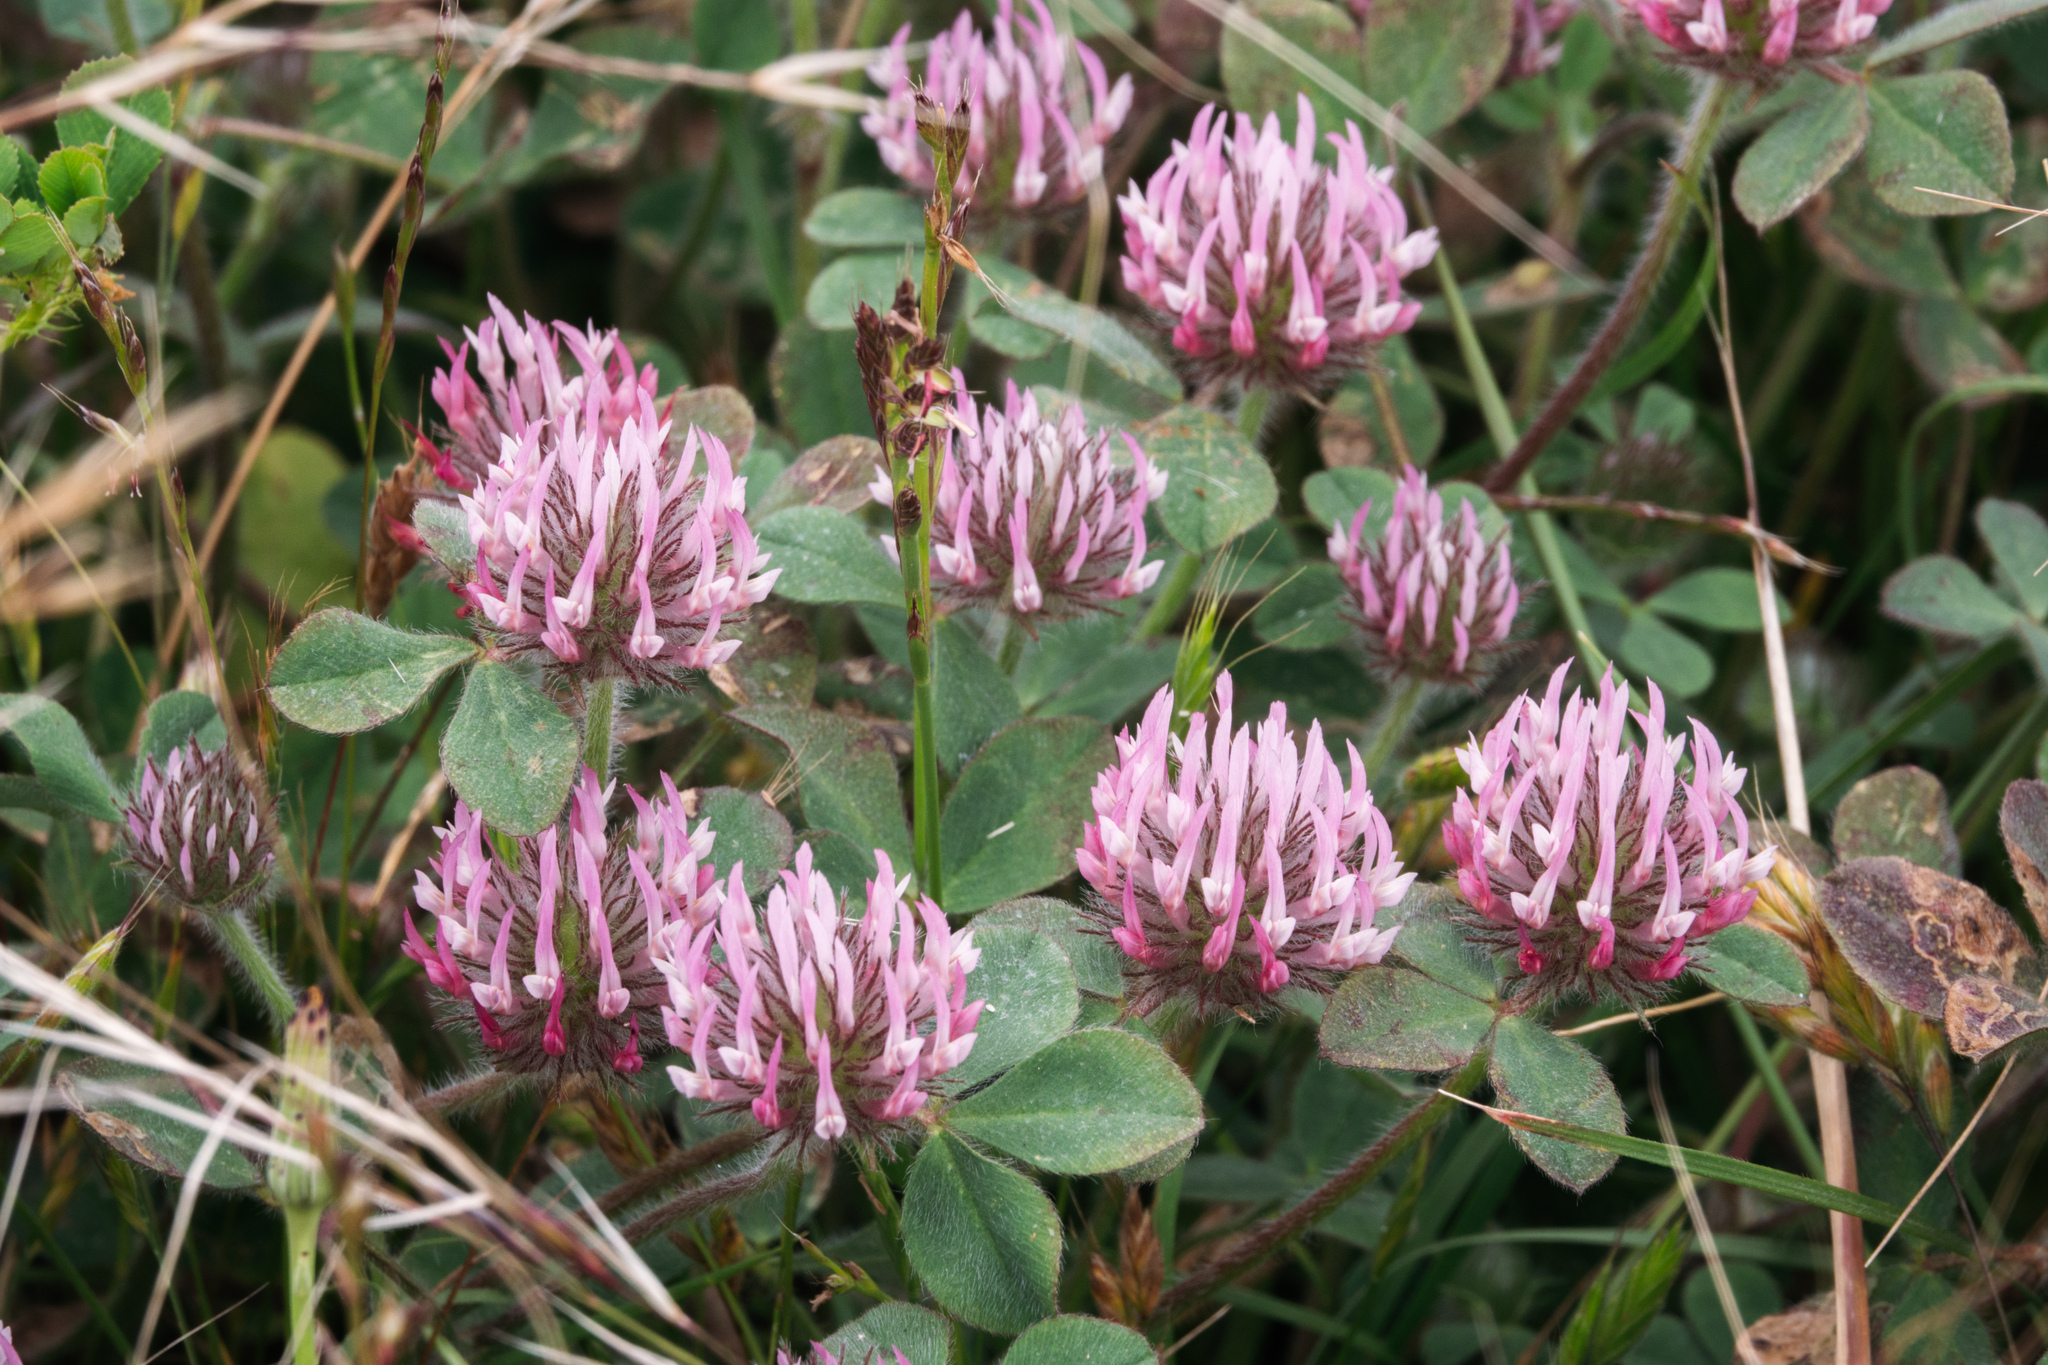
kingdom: Plantae
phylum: Tracheophyta
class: Magnoliopsida
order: Fabales
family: Fabaceae
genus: Trifolium
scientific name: Trifolium hirtum
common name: Rose clover
